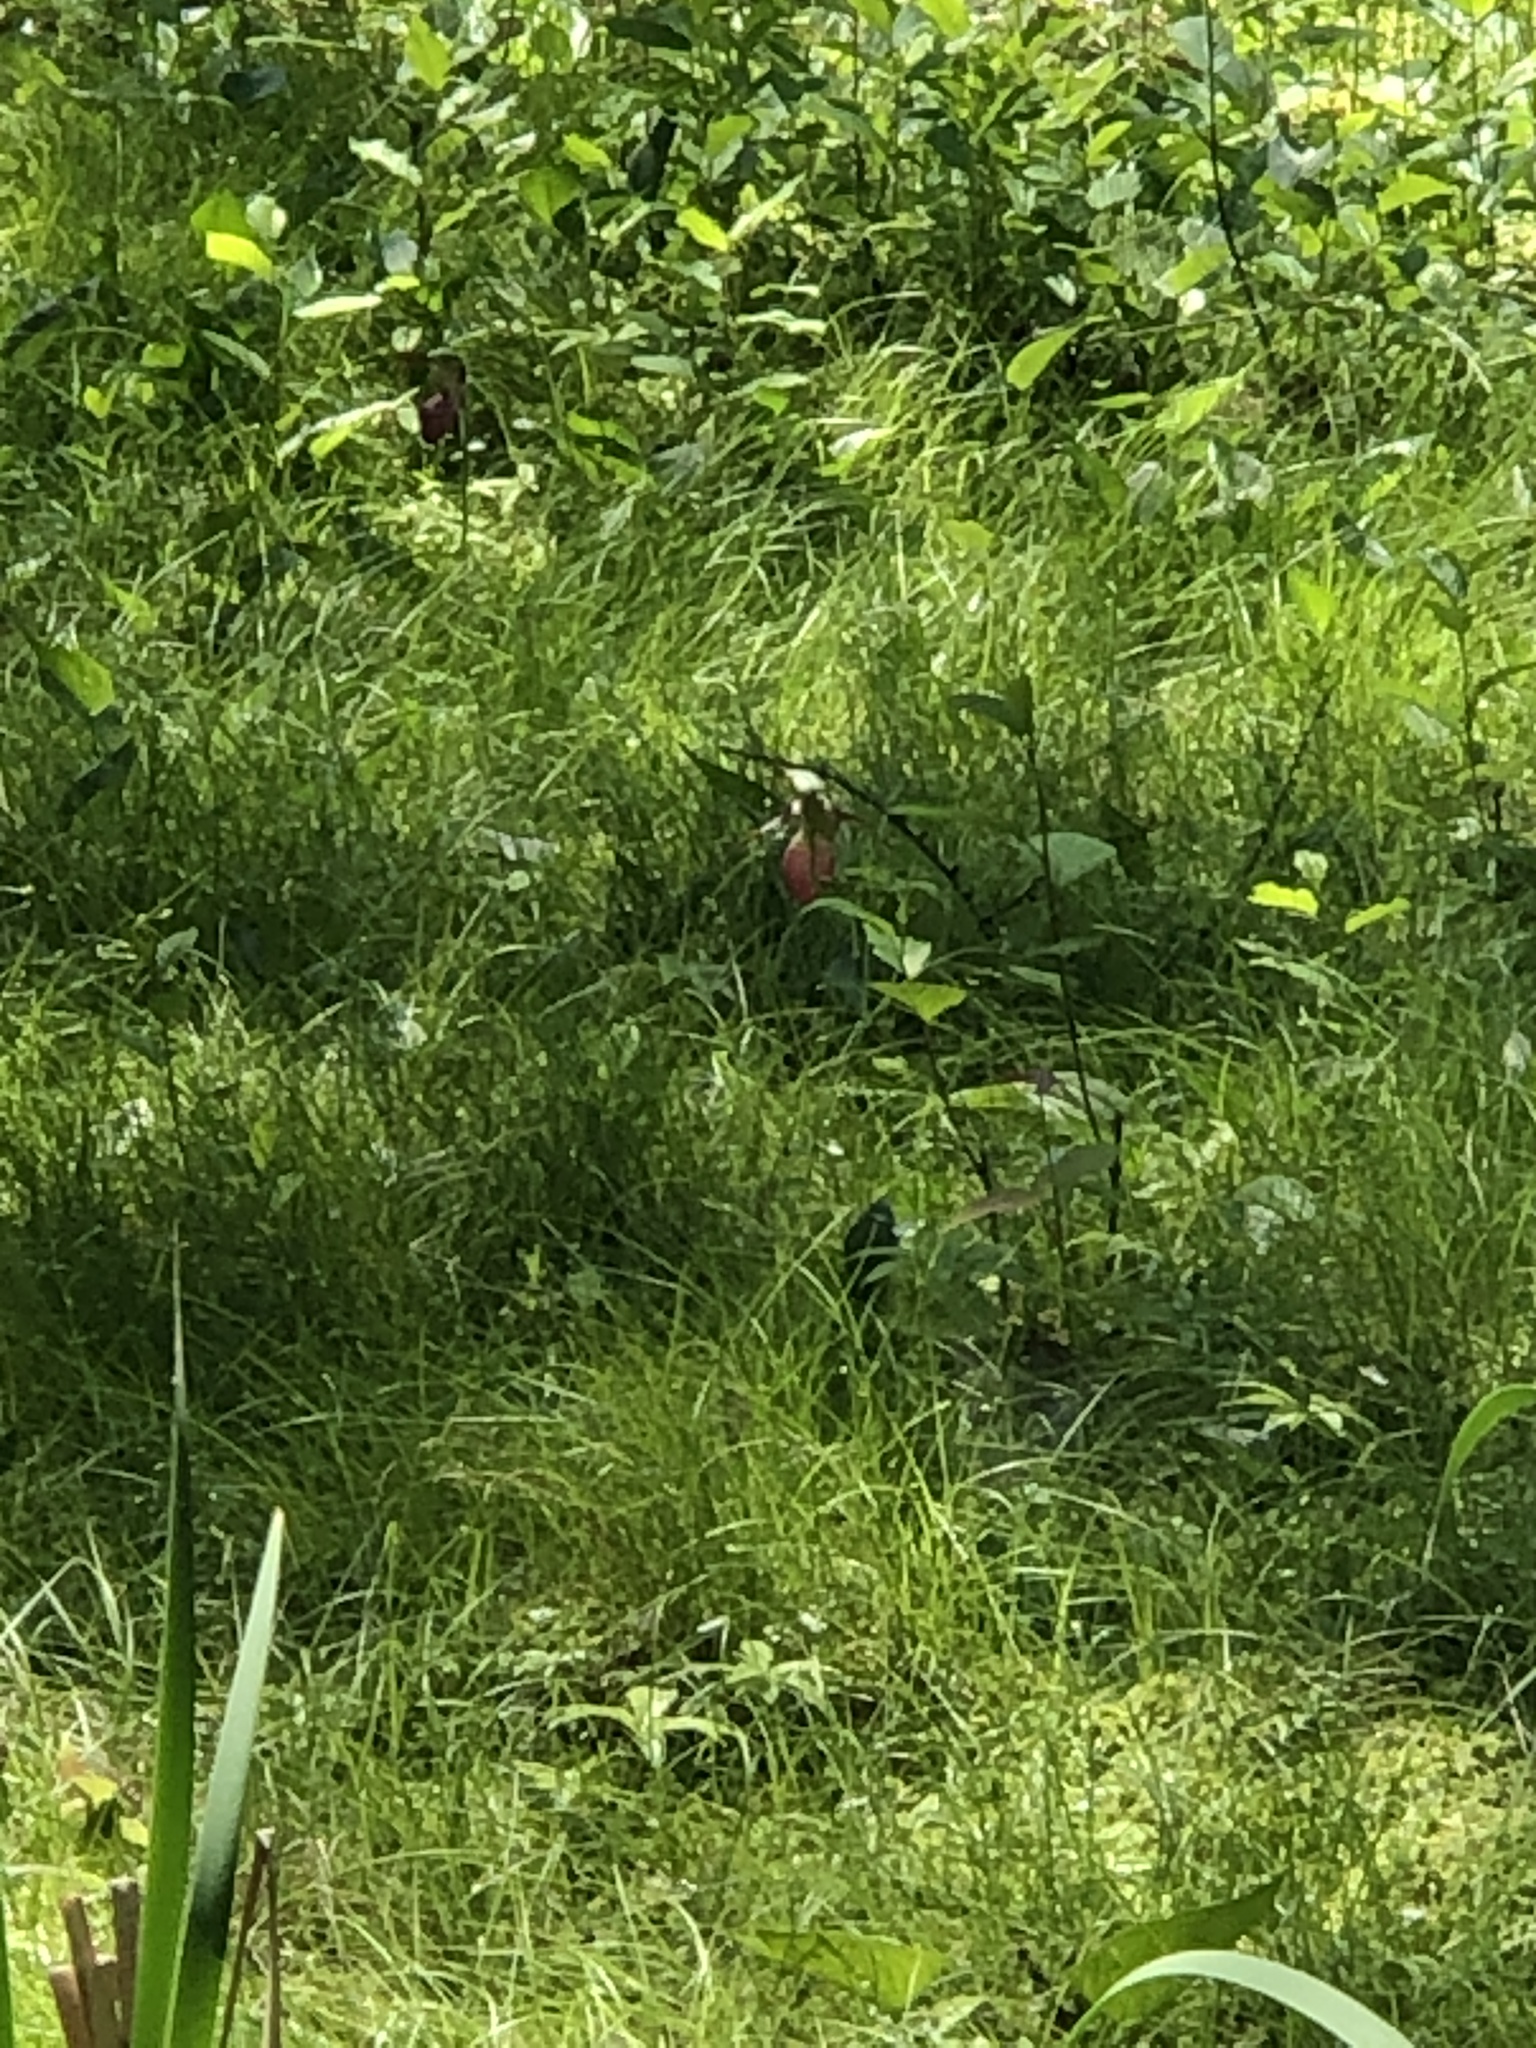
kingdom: Plantae
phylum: Tracheophyta
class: Liliopsida
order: Asparagales
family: Orchidaceae
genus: Cypripedium
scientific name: Cypripedium acaule
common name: Pink lady's-slipper
